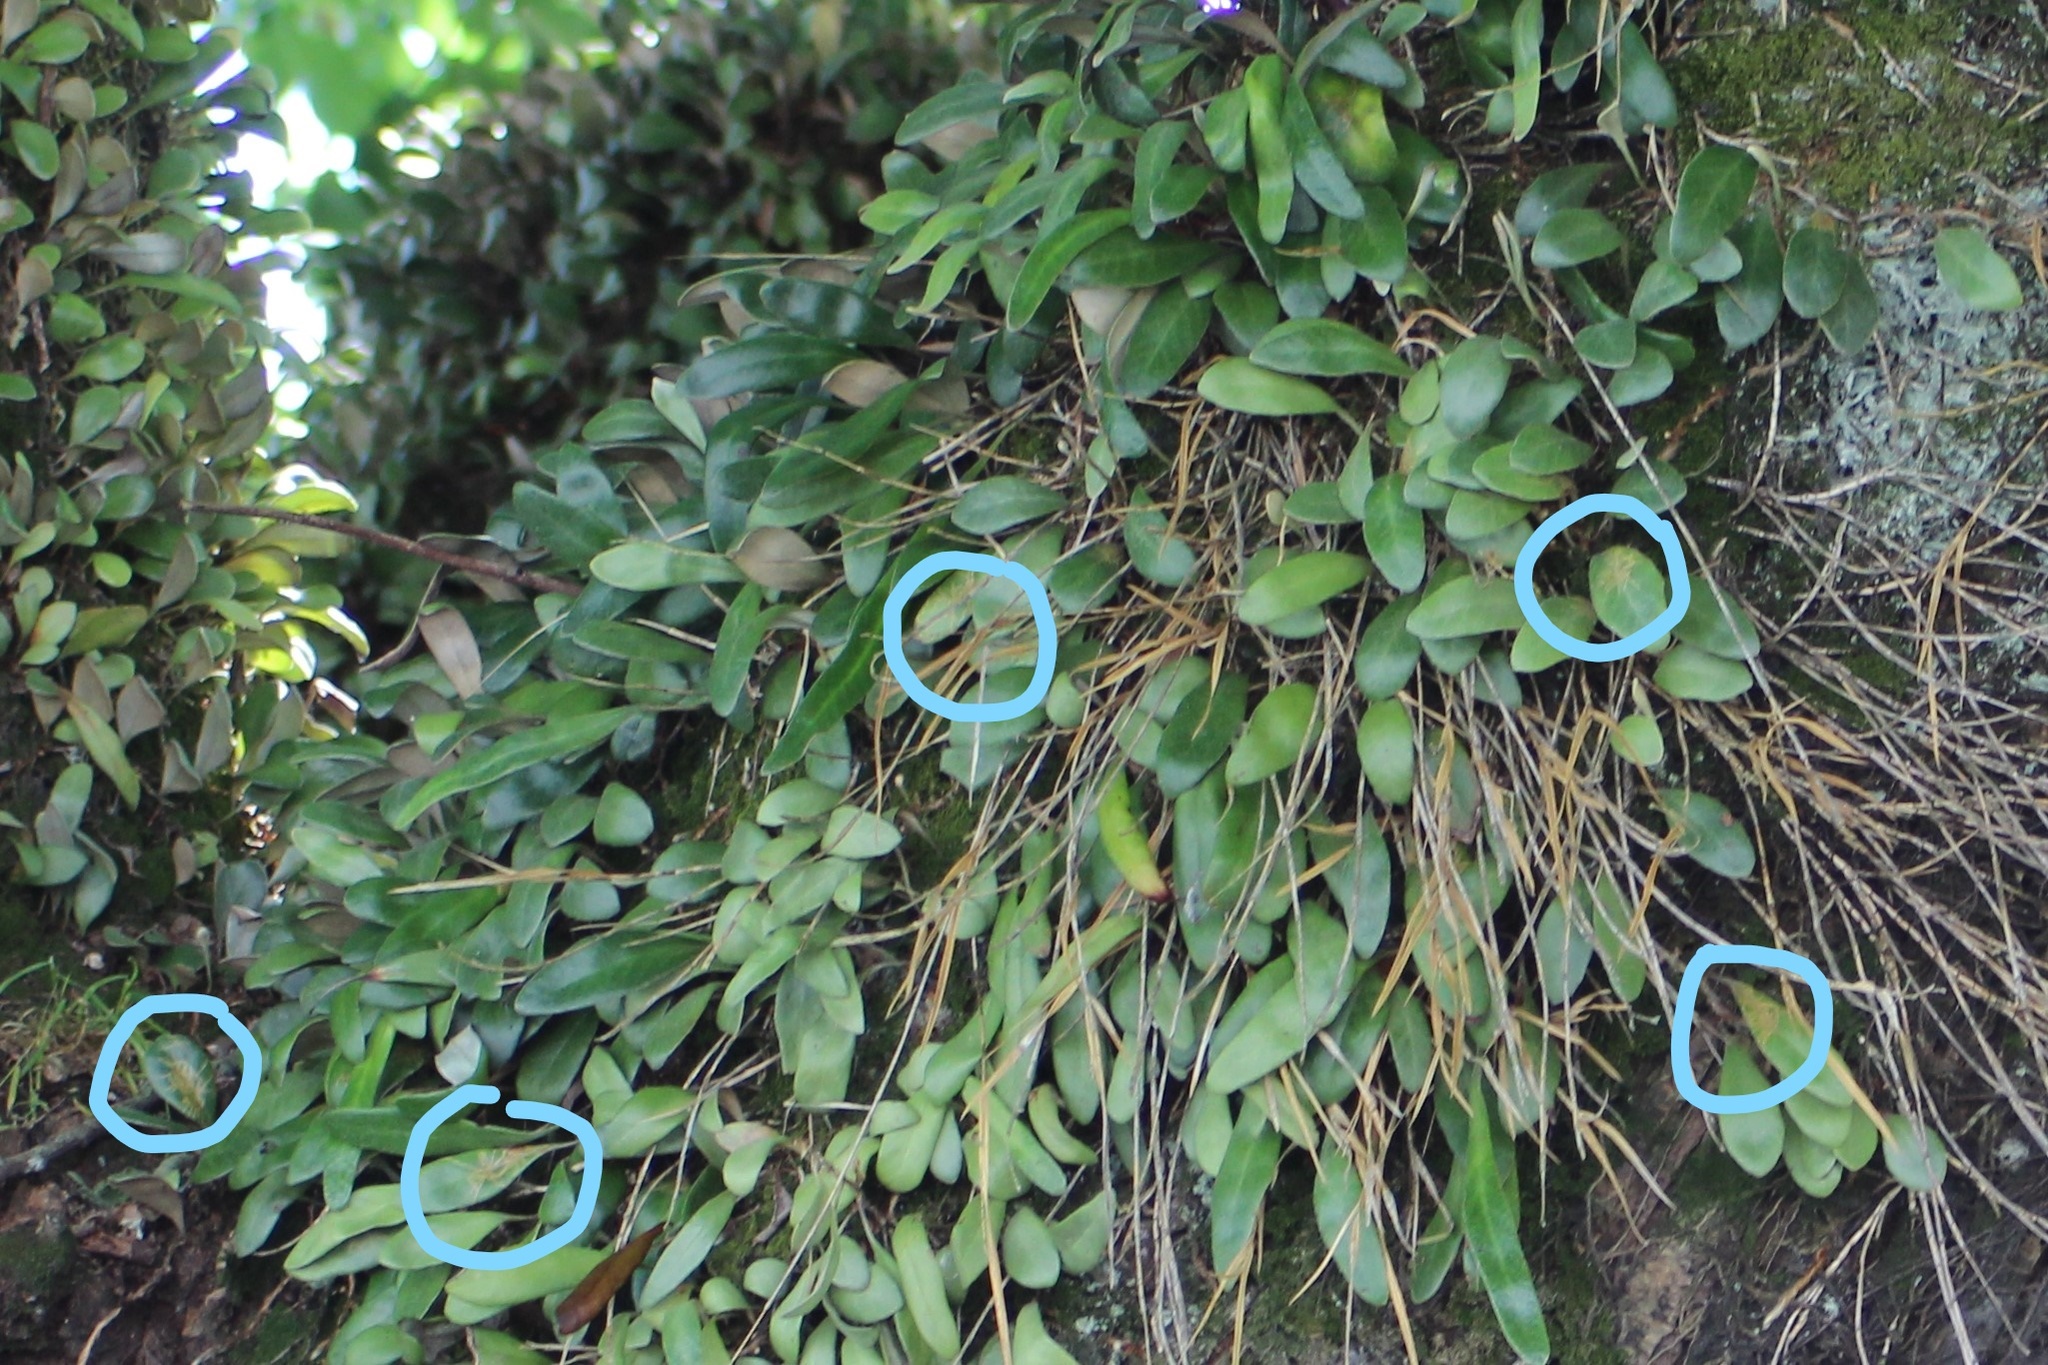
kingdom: Animalia
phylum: Arthropoda
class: Insecta
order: Lepidoptera
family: Tortricidae
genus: Philocryptica
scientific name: Philocryptica polypodii
